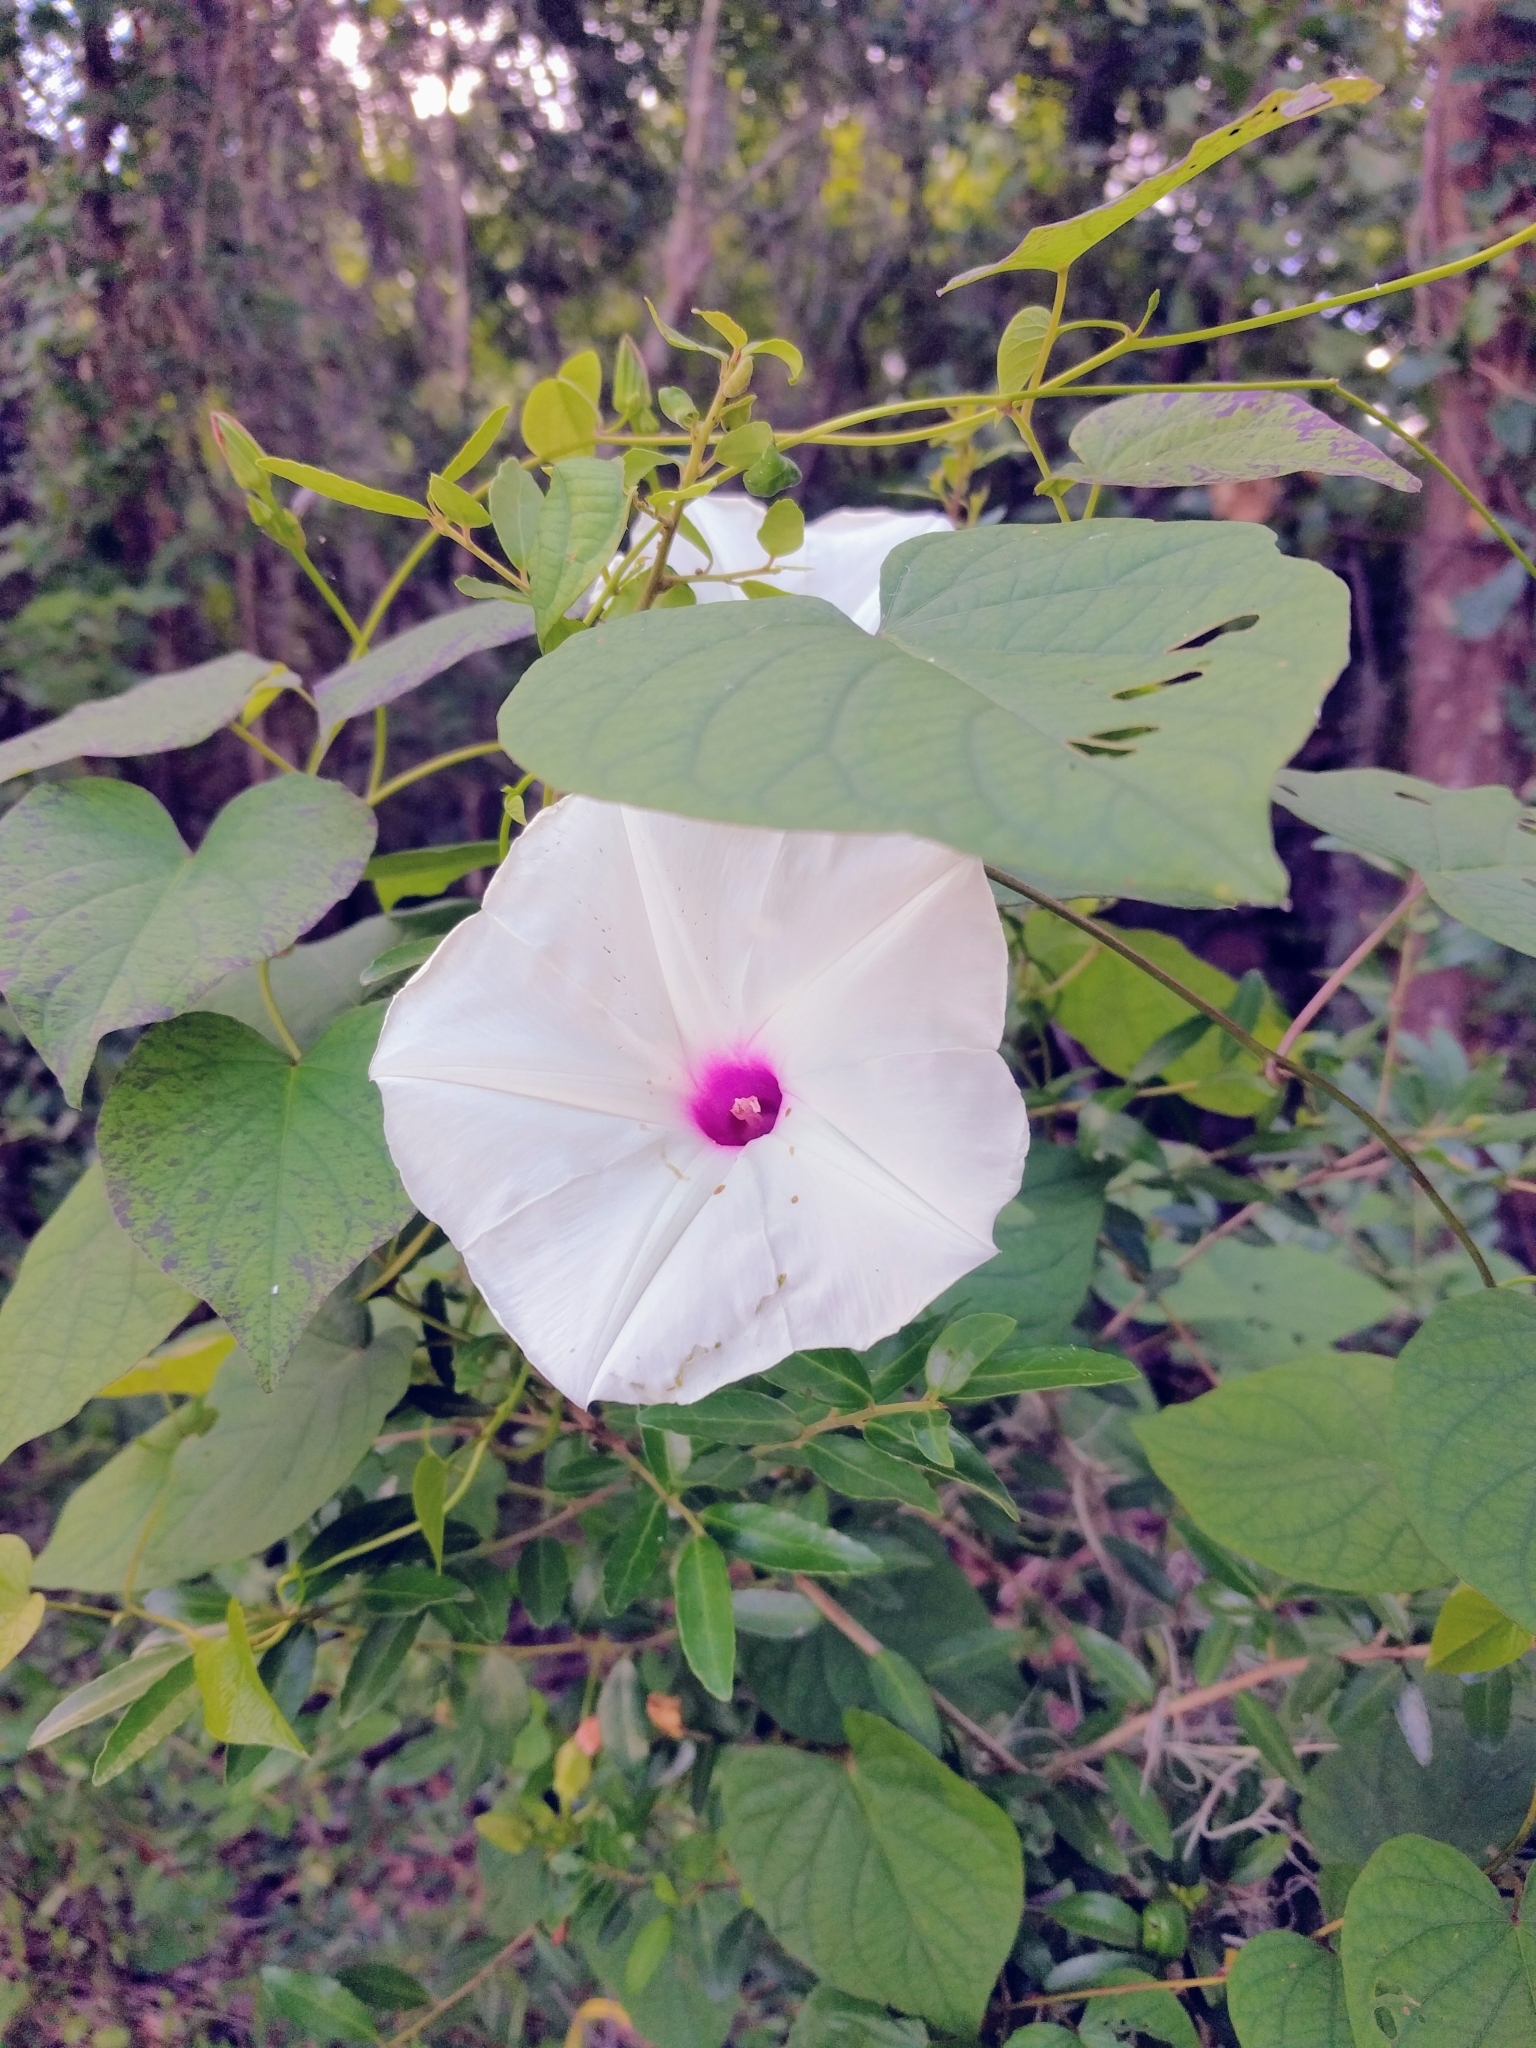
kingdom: Plantae
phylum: Tracheophyta
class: Magnoliopsida
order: Solanales
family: Convolvulaceae
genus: Ipomoea
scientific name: Ipomoea pandurata
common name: Man-of-the-earth
